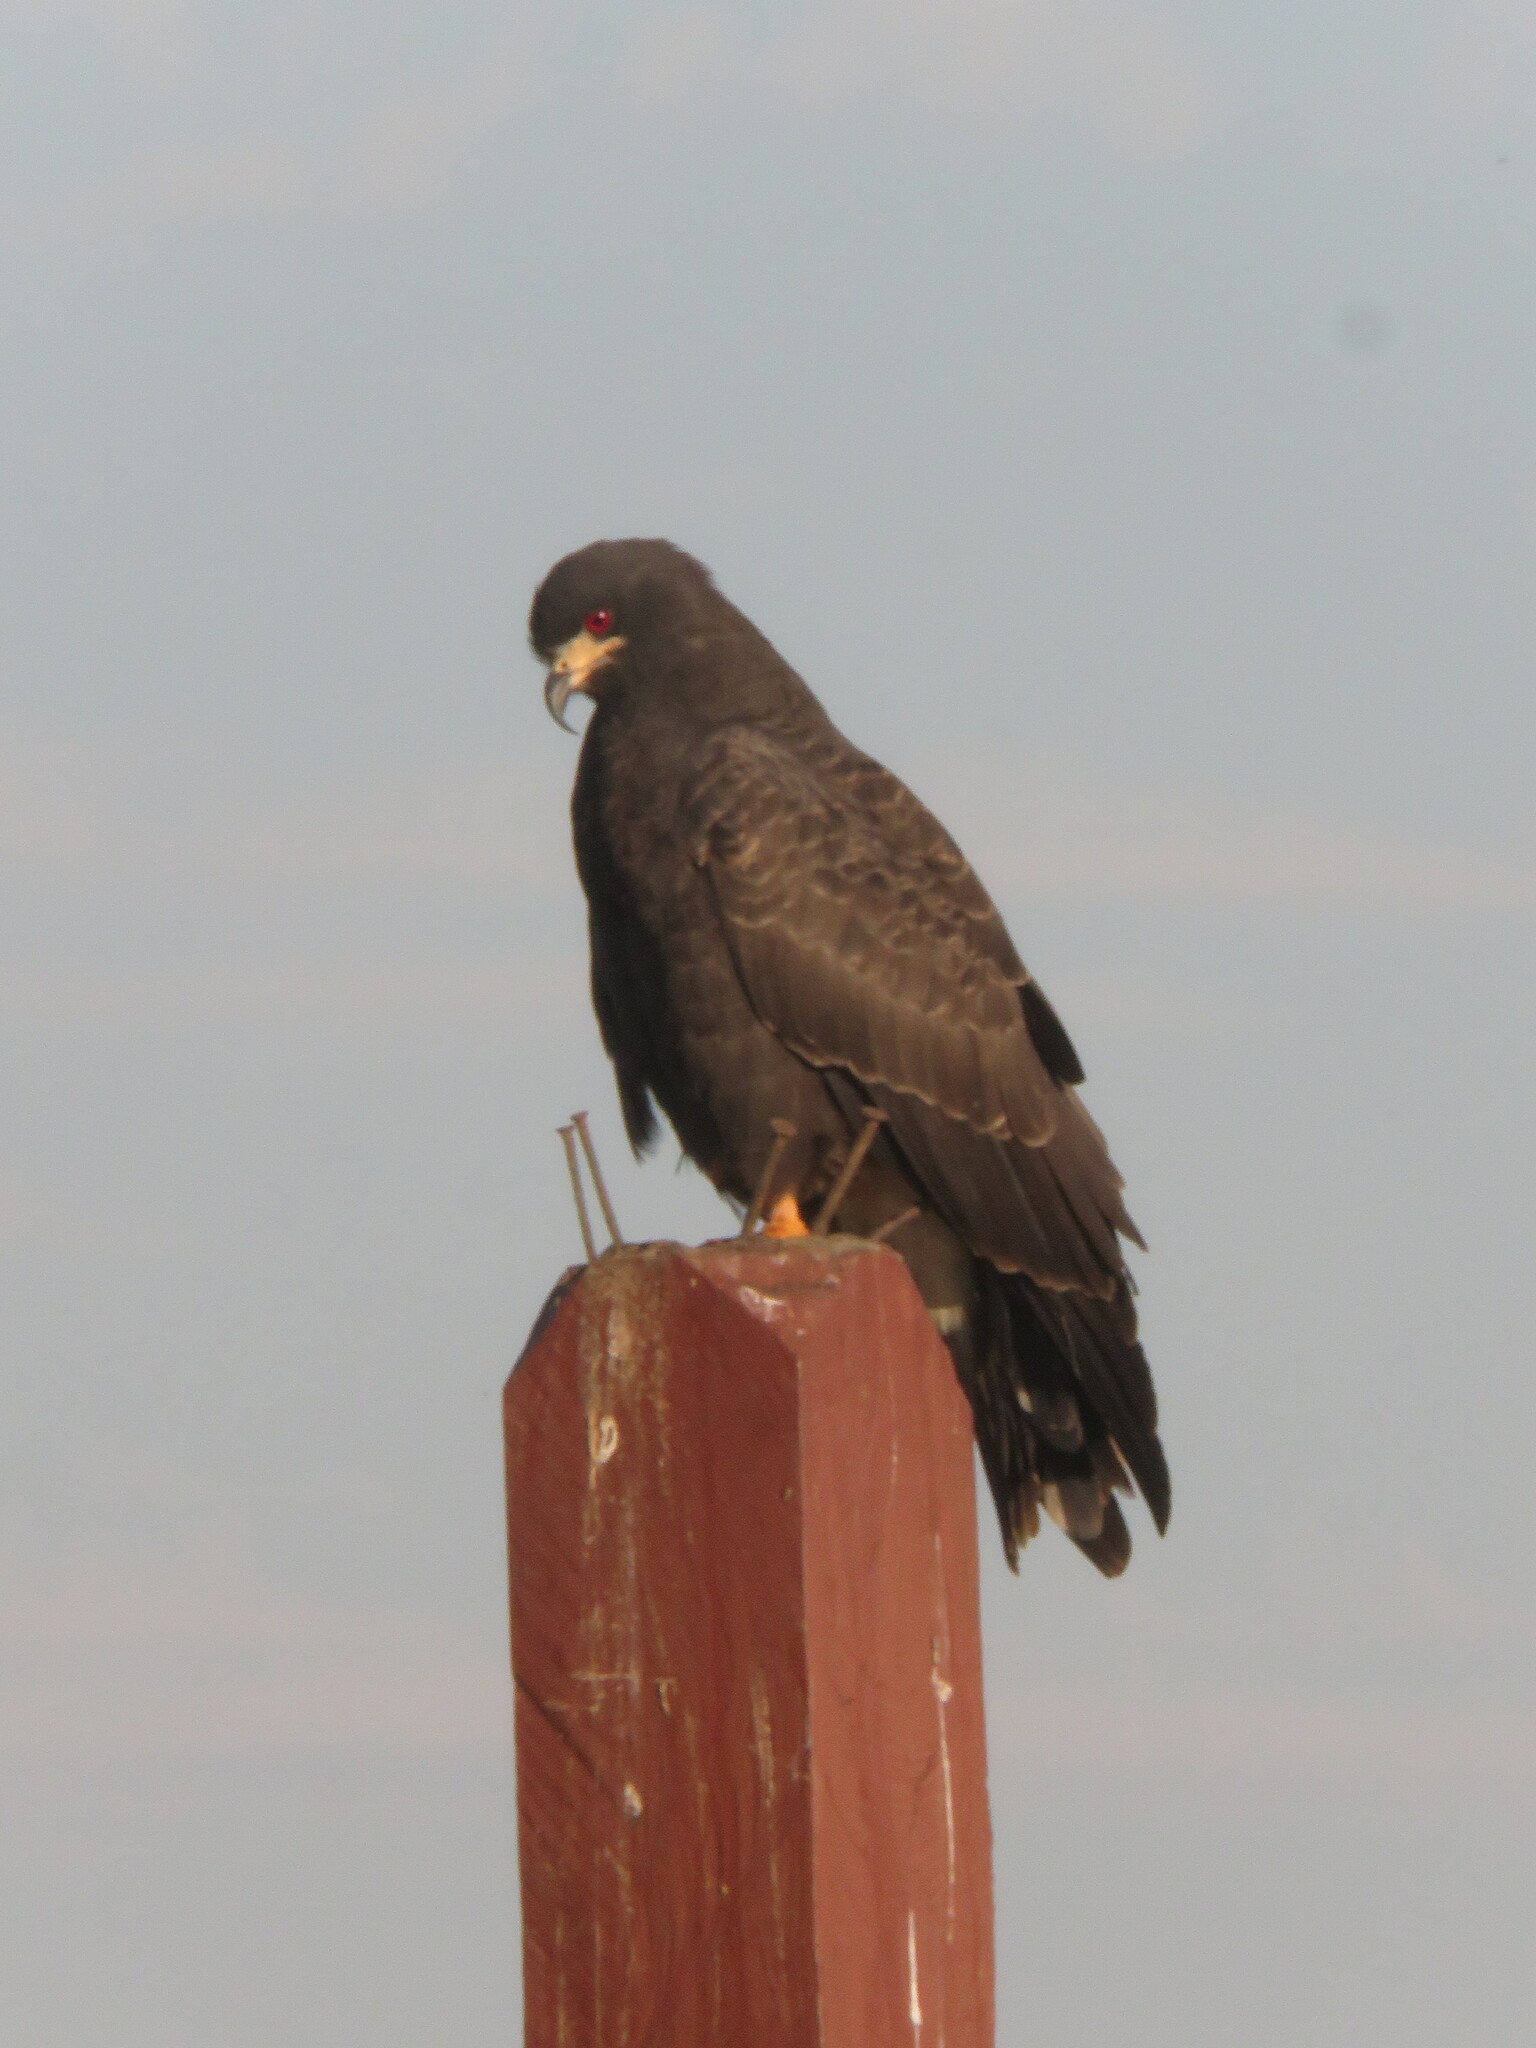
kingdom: Animalia
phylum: Chordata
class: Aves
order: Accipitriformes
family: Accipitridae
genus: Rostrhamus
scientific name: Rostrhamus sociabilis
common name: Snail kite
